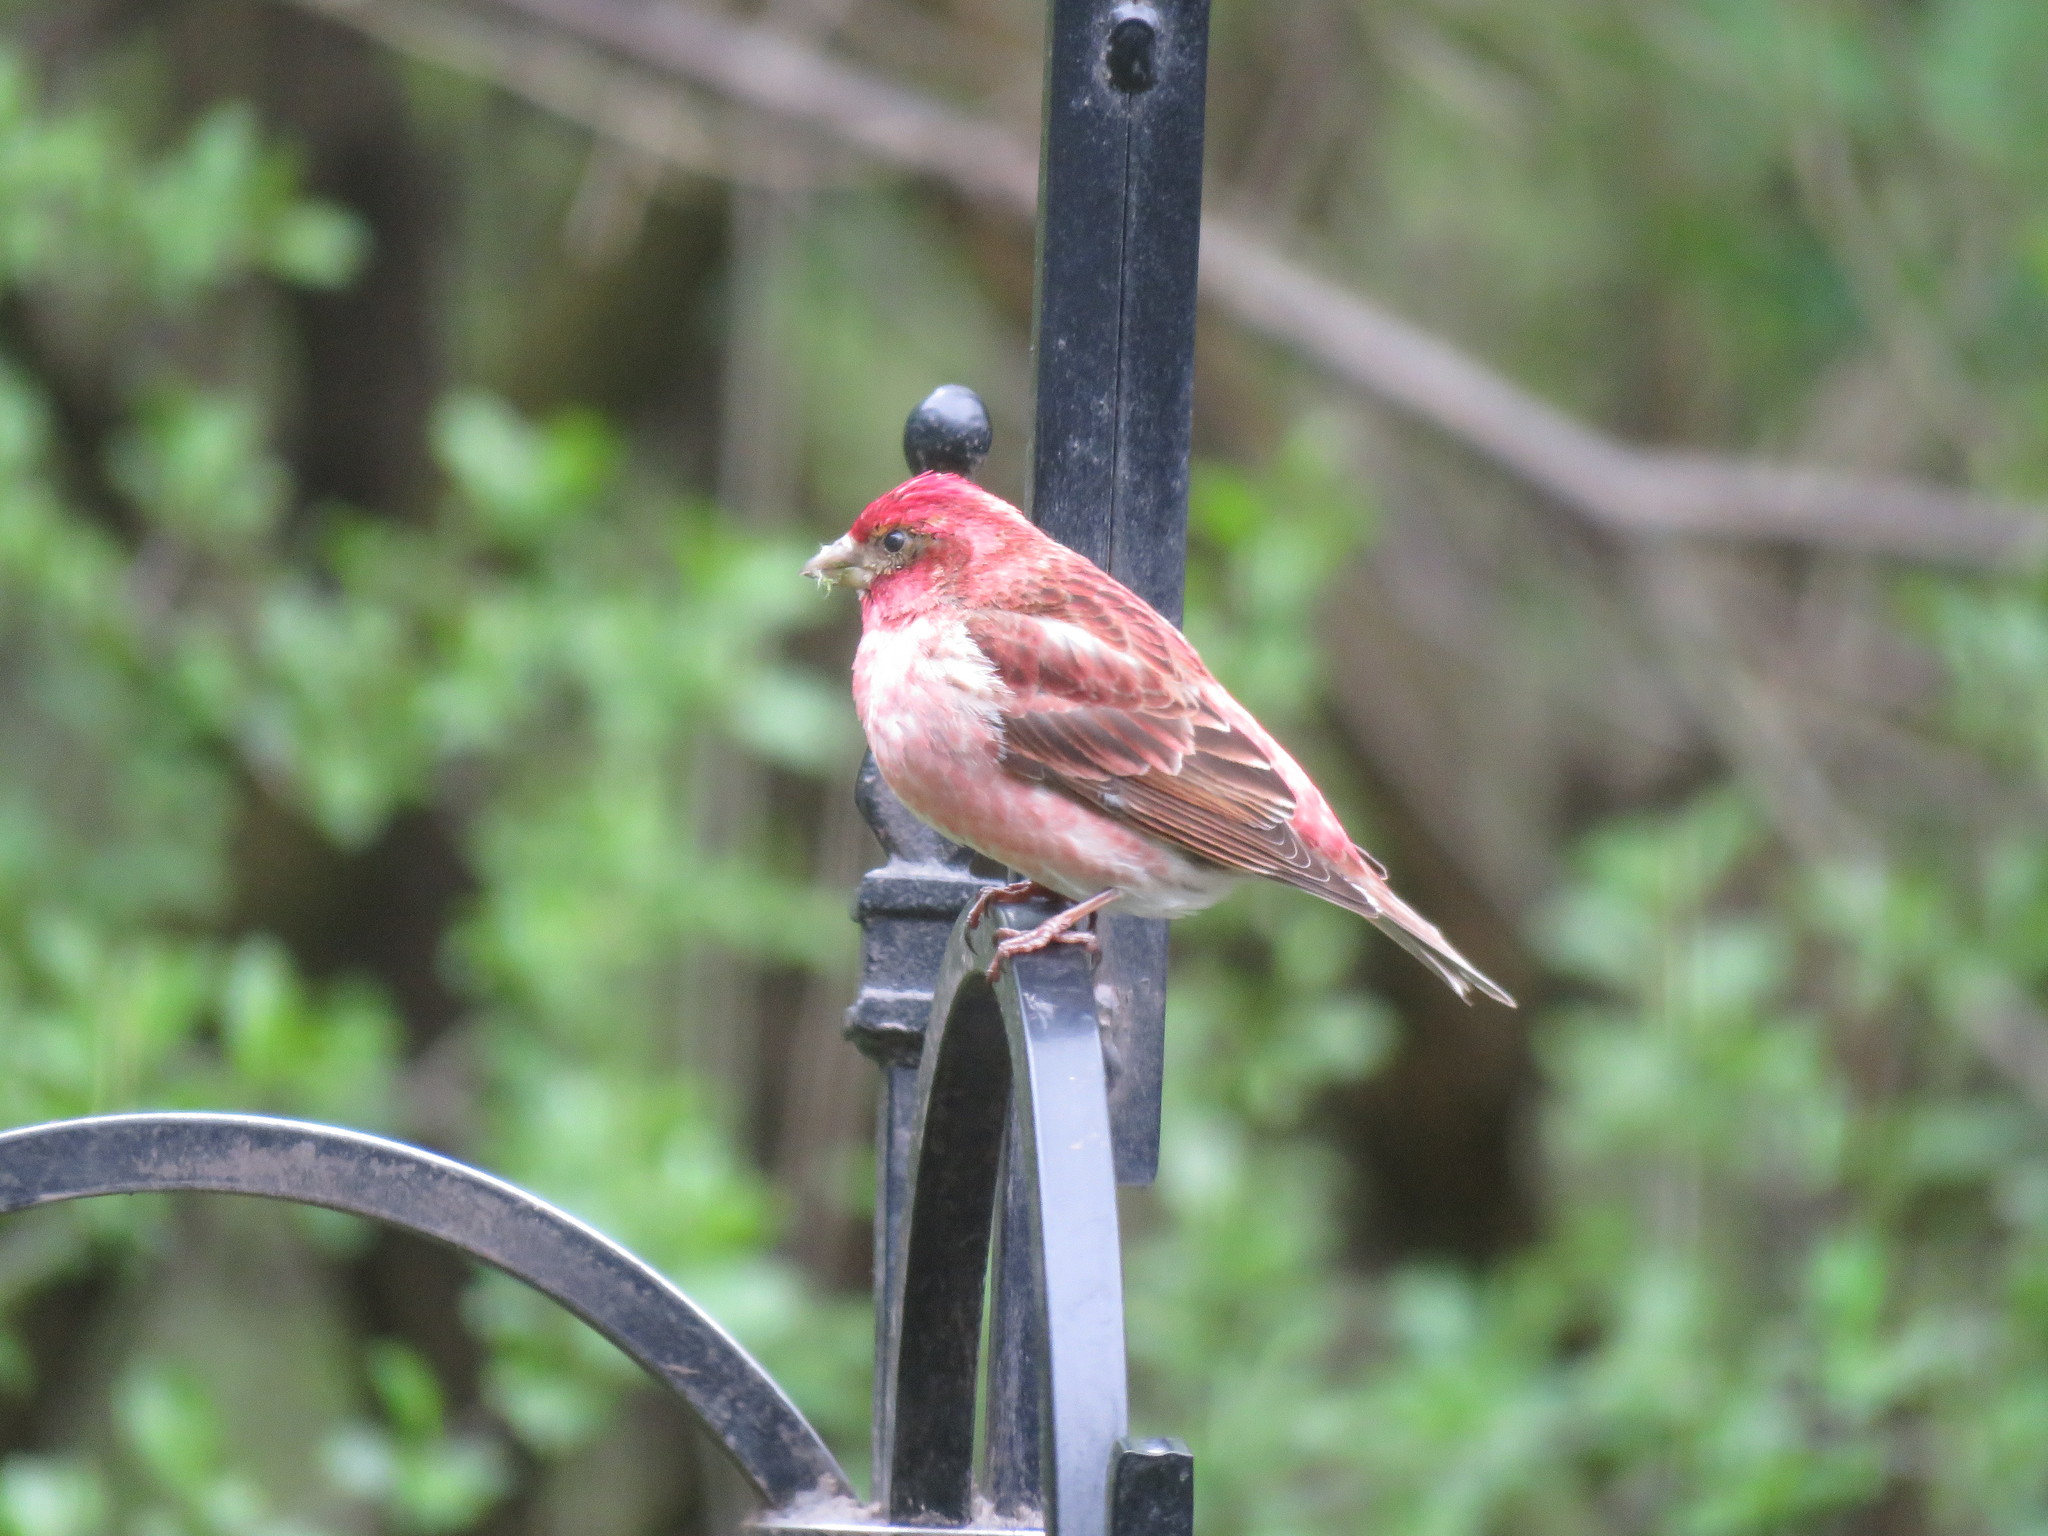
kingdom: Animalia
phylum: Chordata
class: Aves
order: Passeriformes
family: Fringillidae
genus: Haemorhous
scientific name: Haemorhous purpureus
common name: Purple finch
